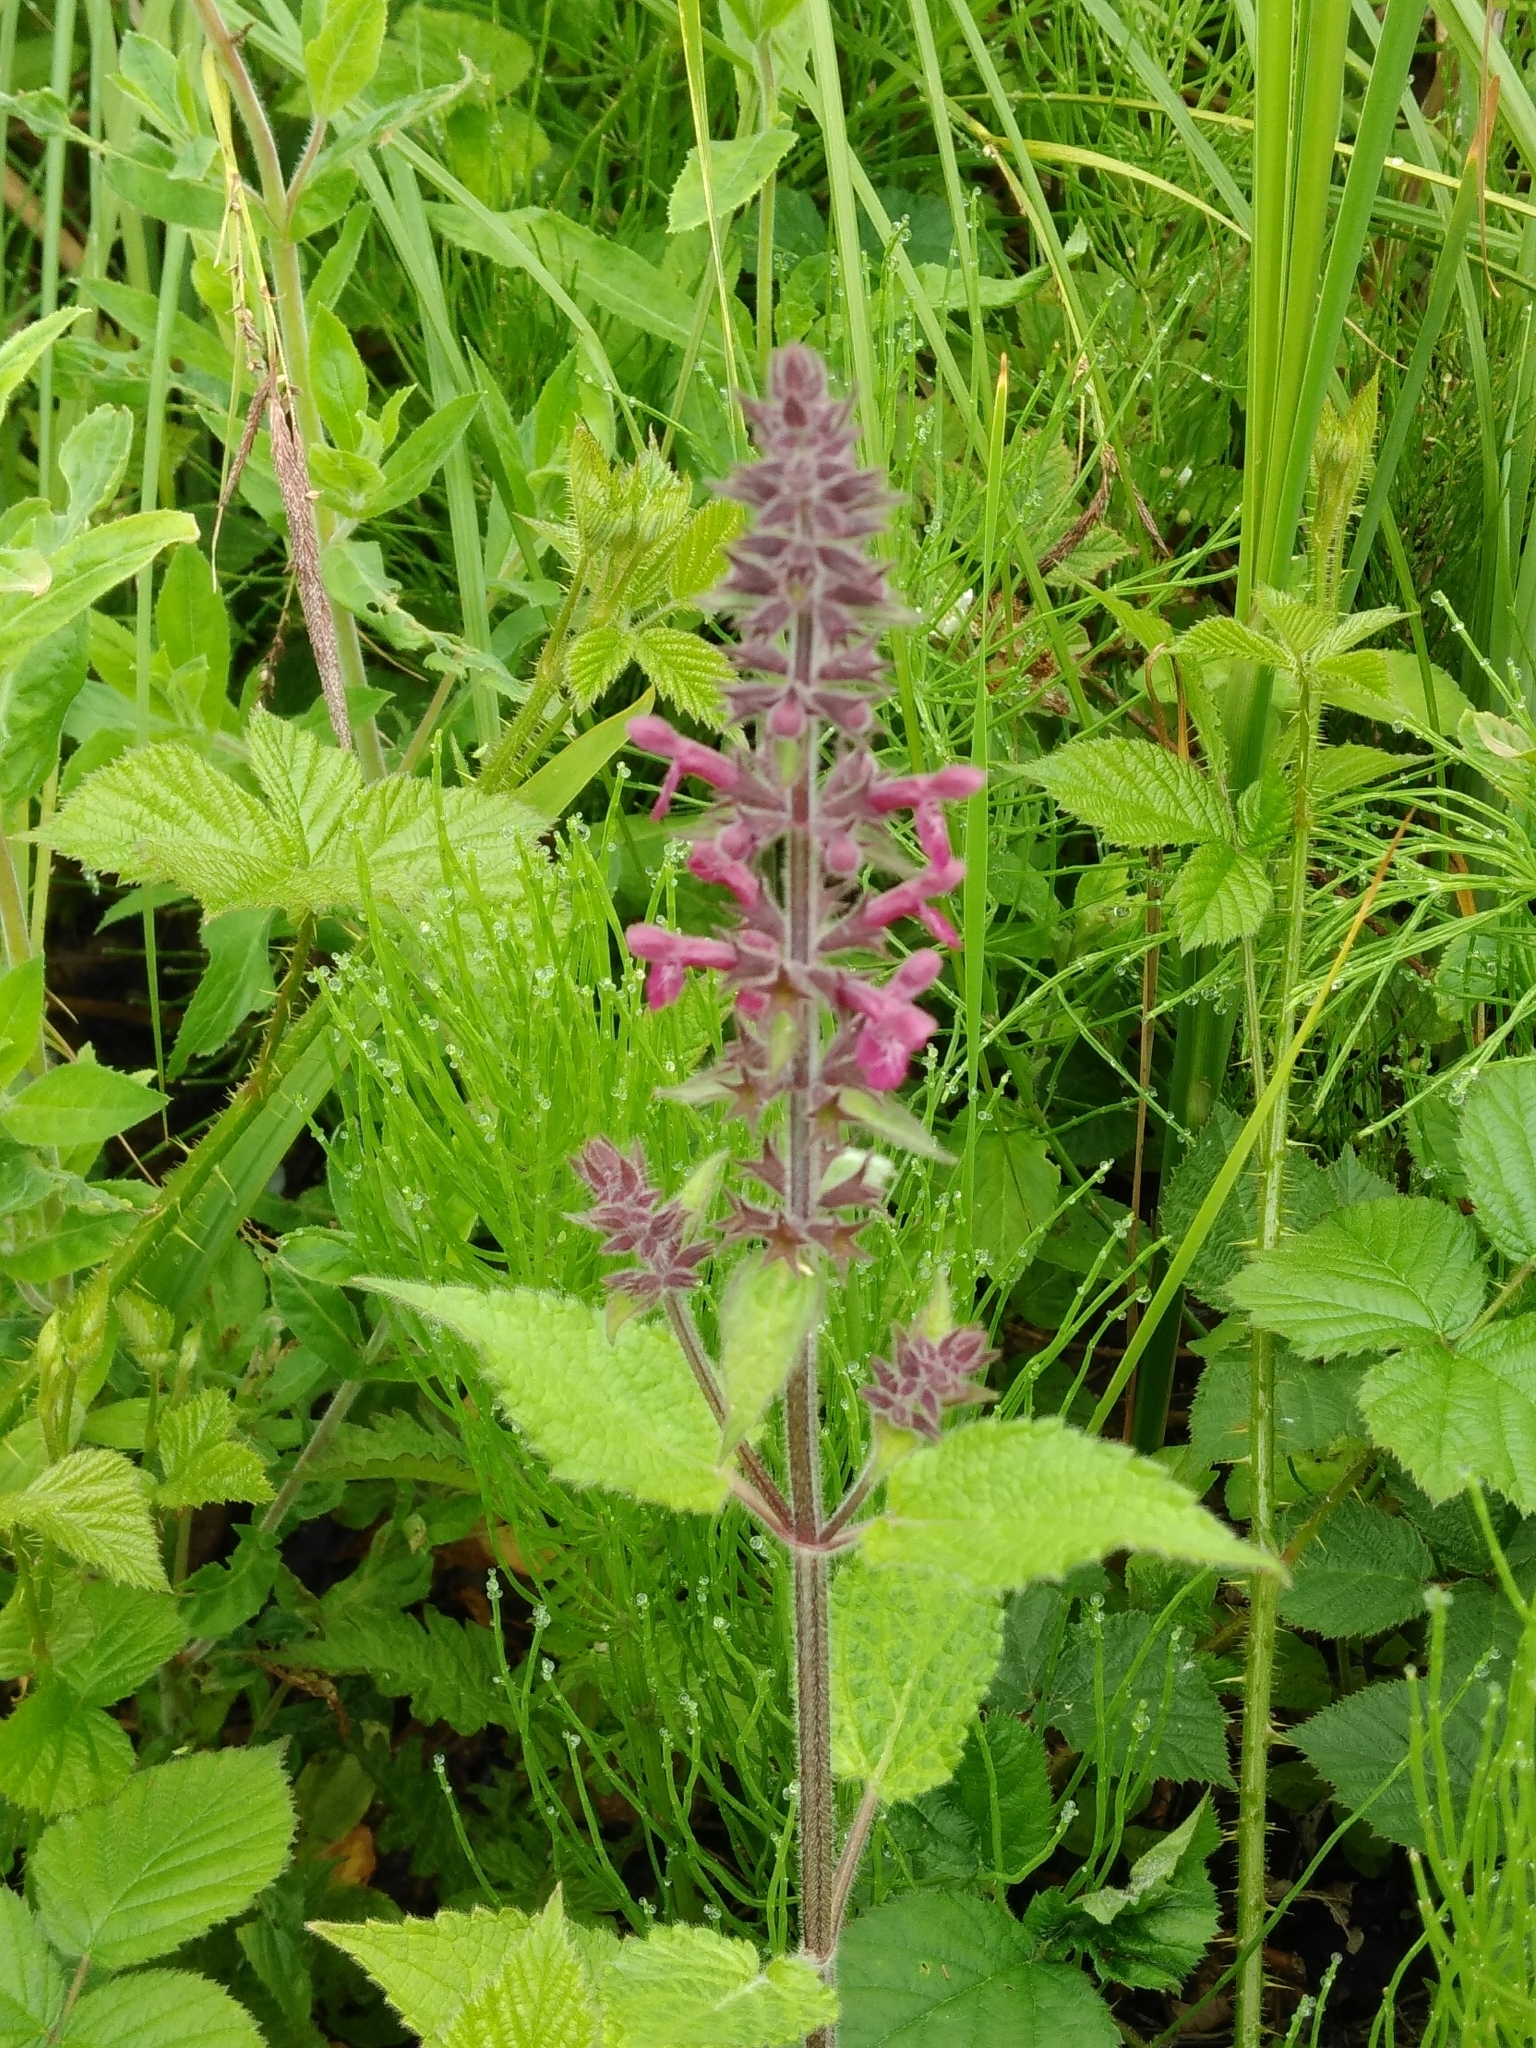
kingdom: Plantae
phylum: Tracheophyta
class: Magnoliopsida
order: Lamiales
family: Lamiaceae
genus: Stachys
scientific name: Stachys sylvatica
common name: Hedge woundwort
